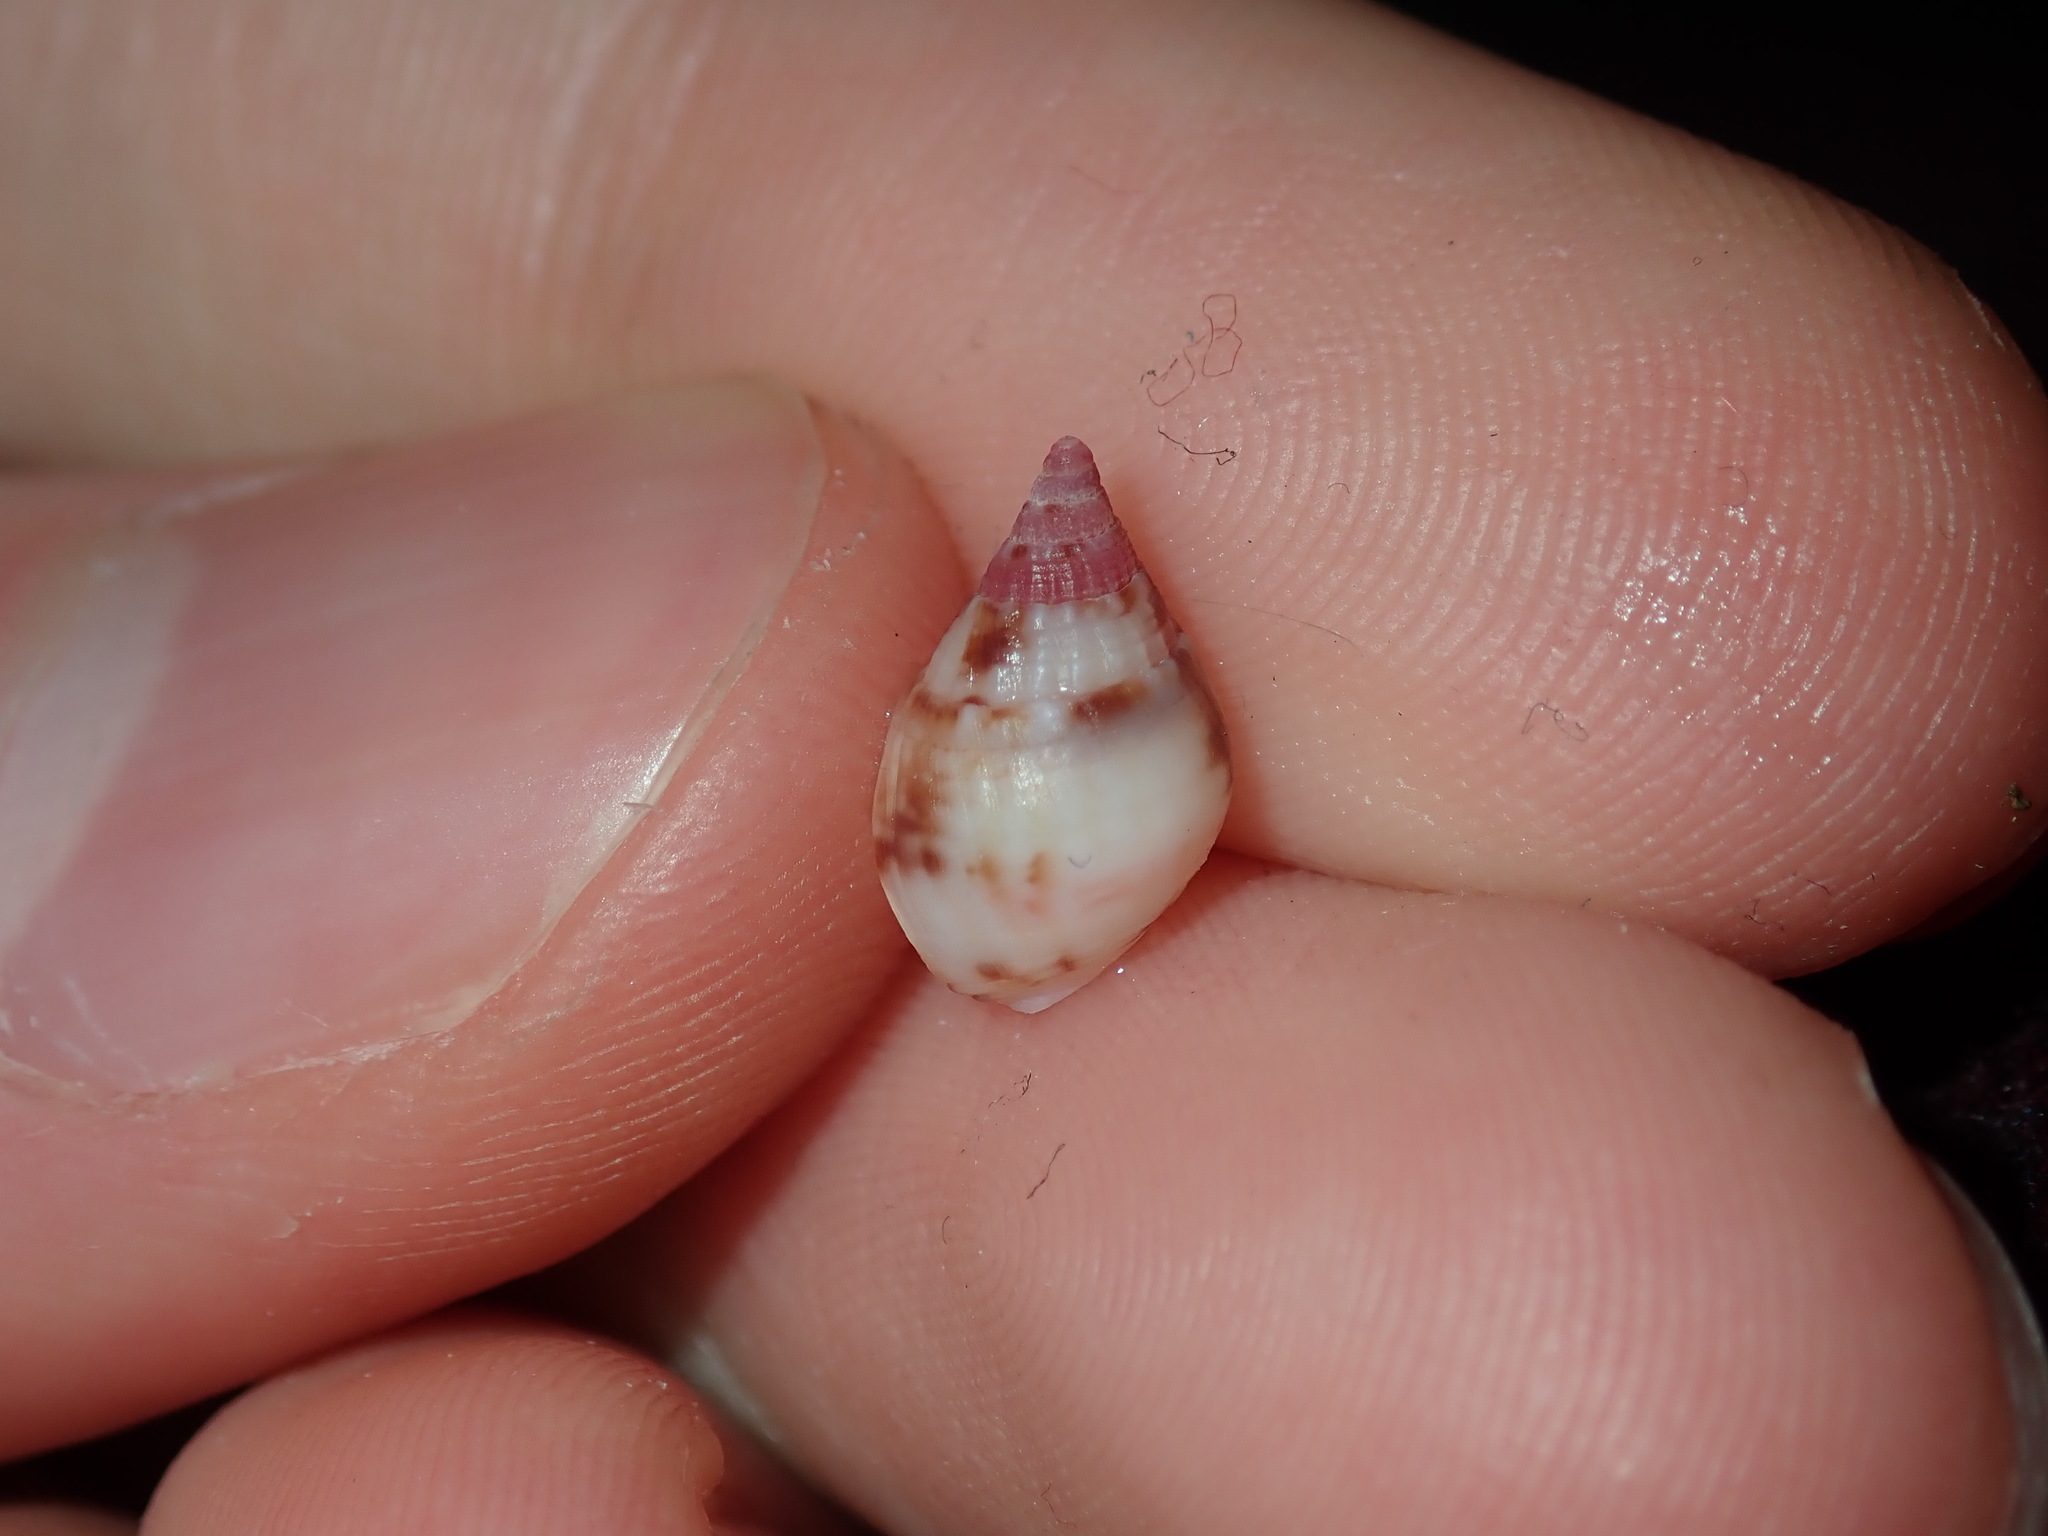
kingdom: Animalia
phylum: Mollusca
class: Gastropoda
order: Neogastropoda
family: Nassariidae
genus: Nassarius
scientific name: Nassarius gaudiosus
